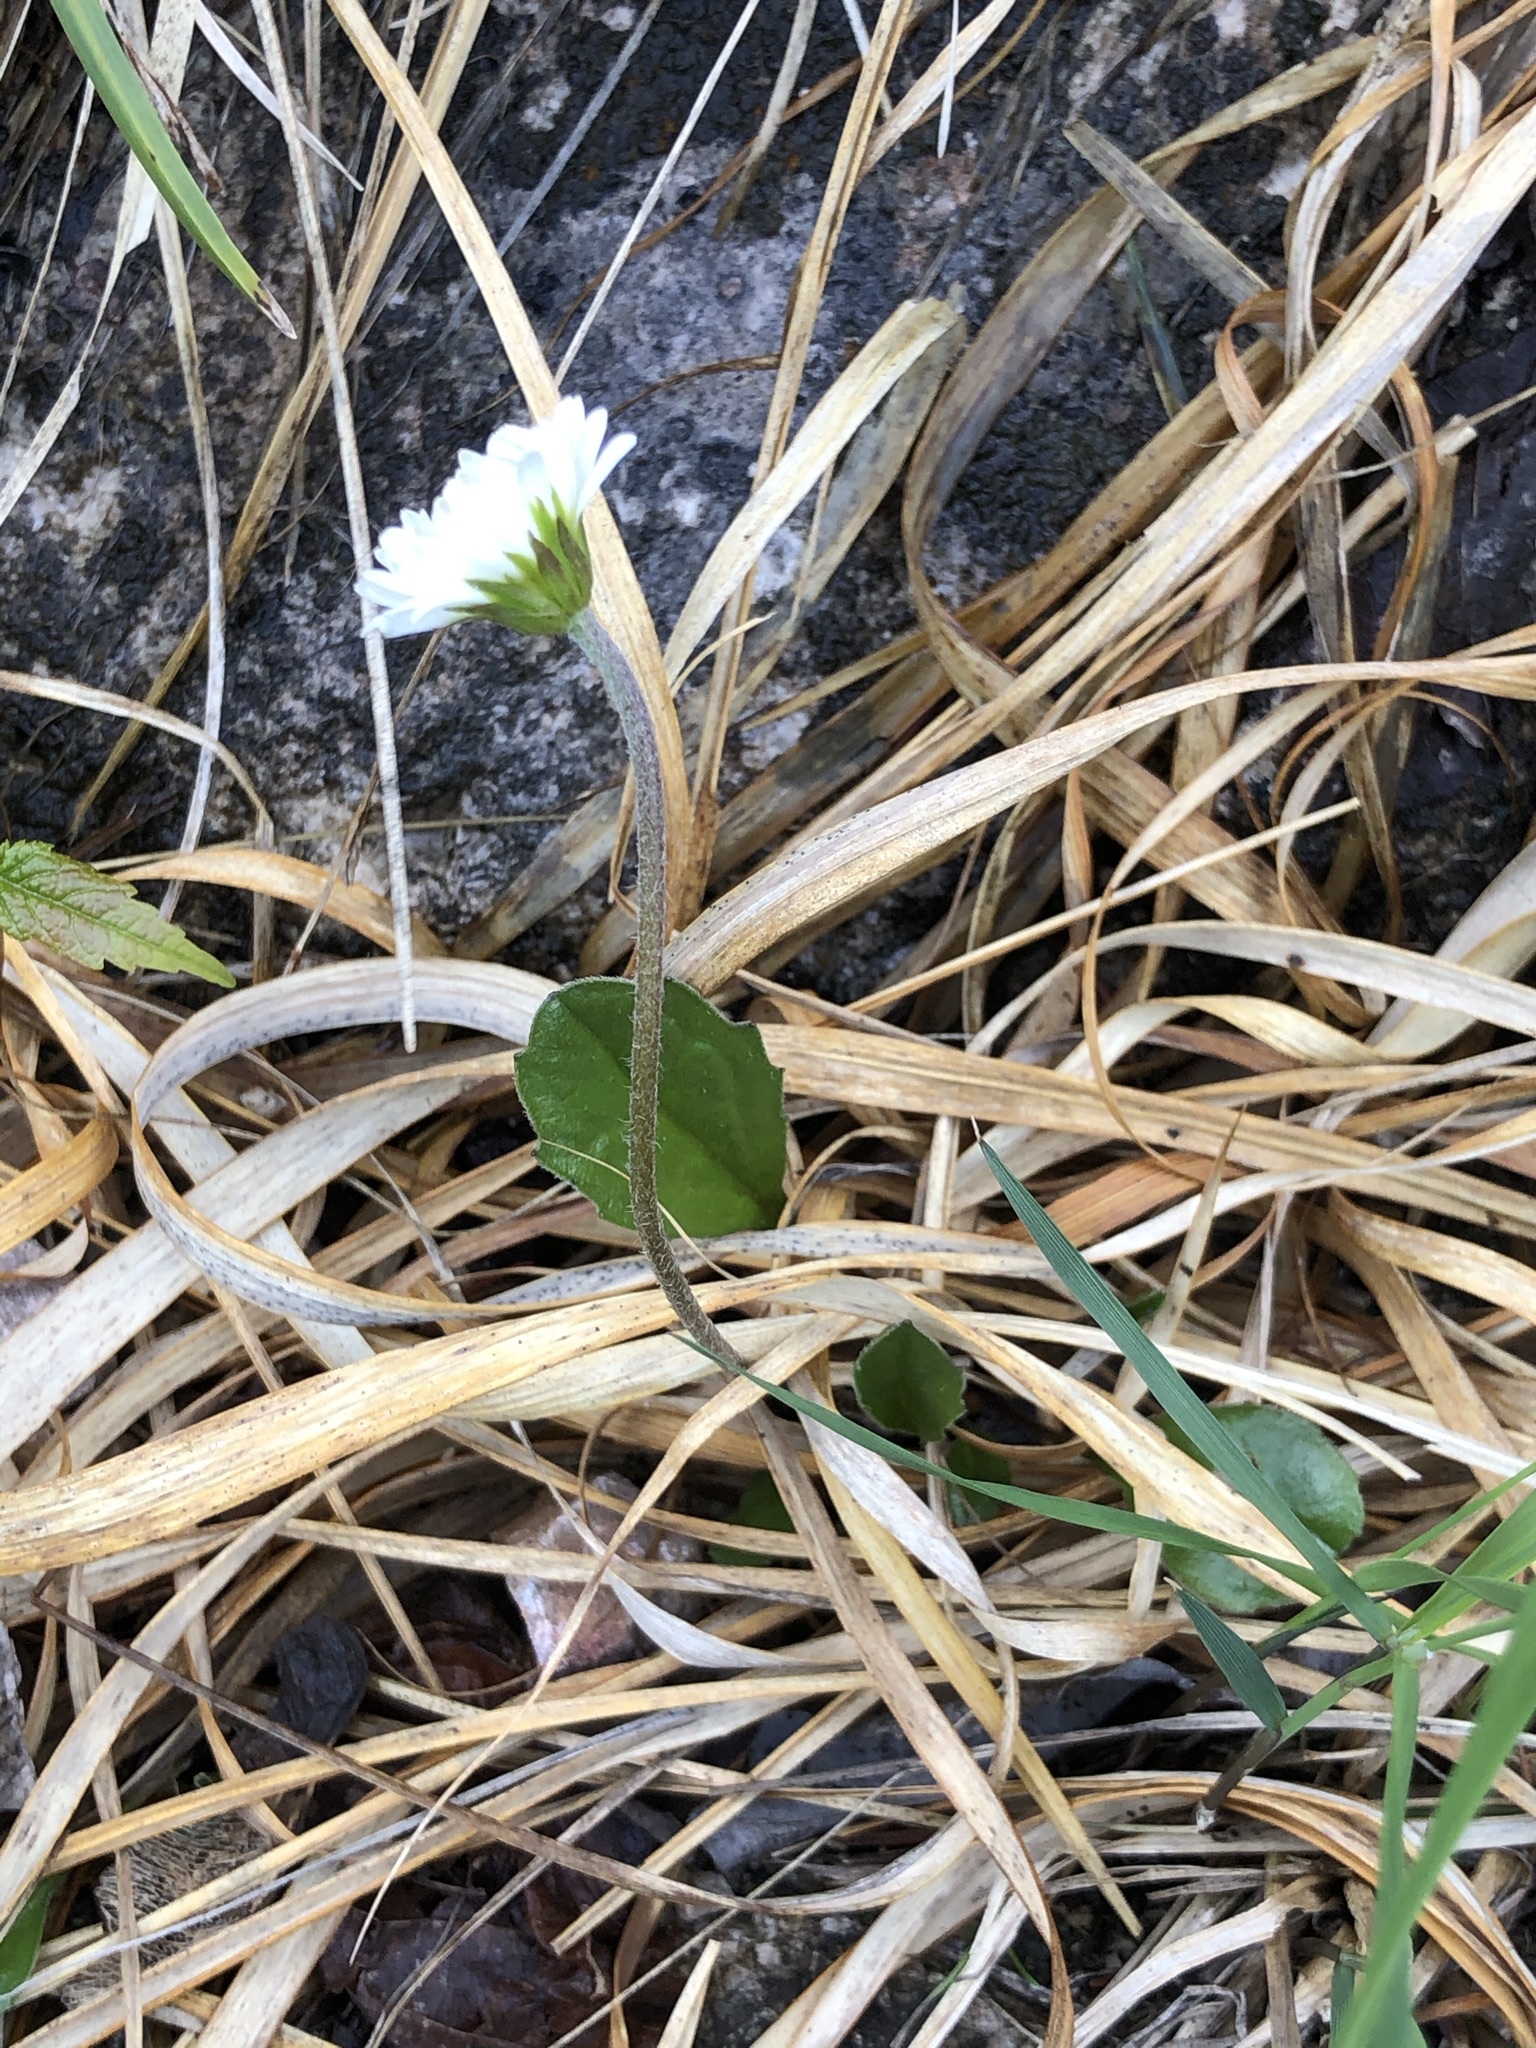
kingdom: Plantae
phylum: Tracheophyta
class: Magnoliopsida
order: Asterales
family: Asteraceae
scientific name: Asteraceae
